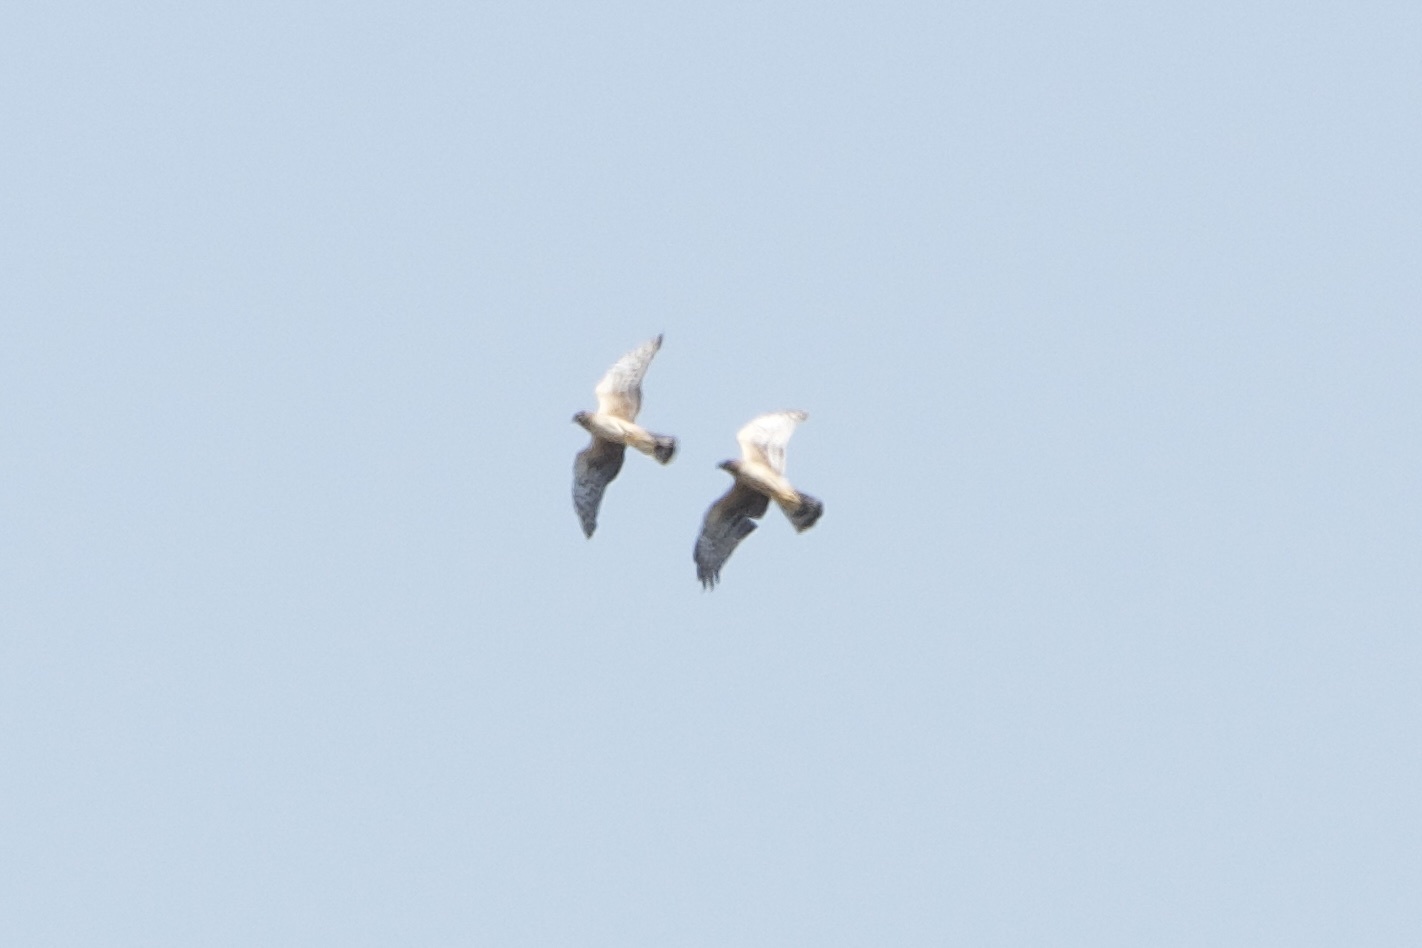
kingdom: Animalia
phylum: Chordata
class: Aves
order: Accipitriformes
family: Accipitridae
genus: Circus
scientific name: Circus cyaneus
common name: Hen harrier
